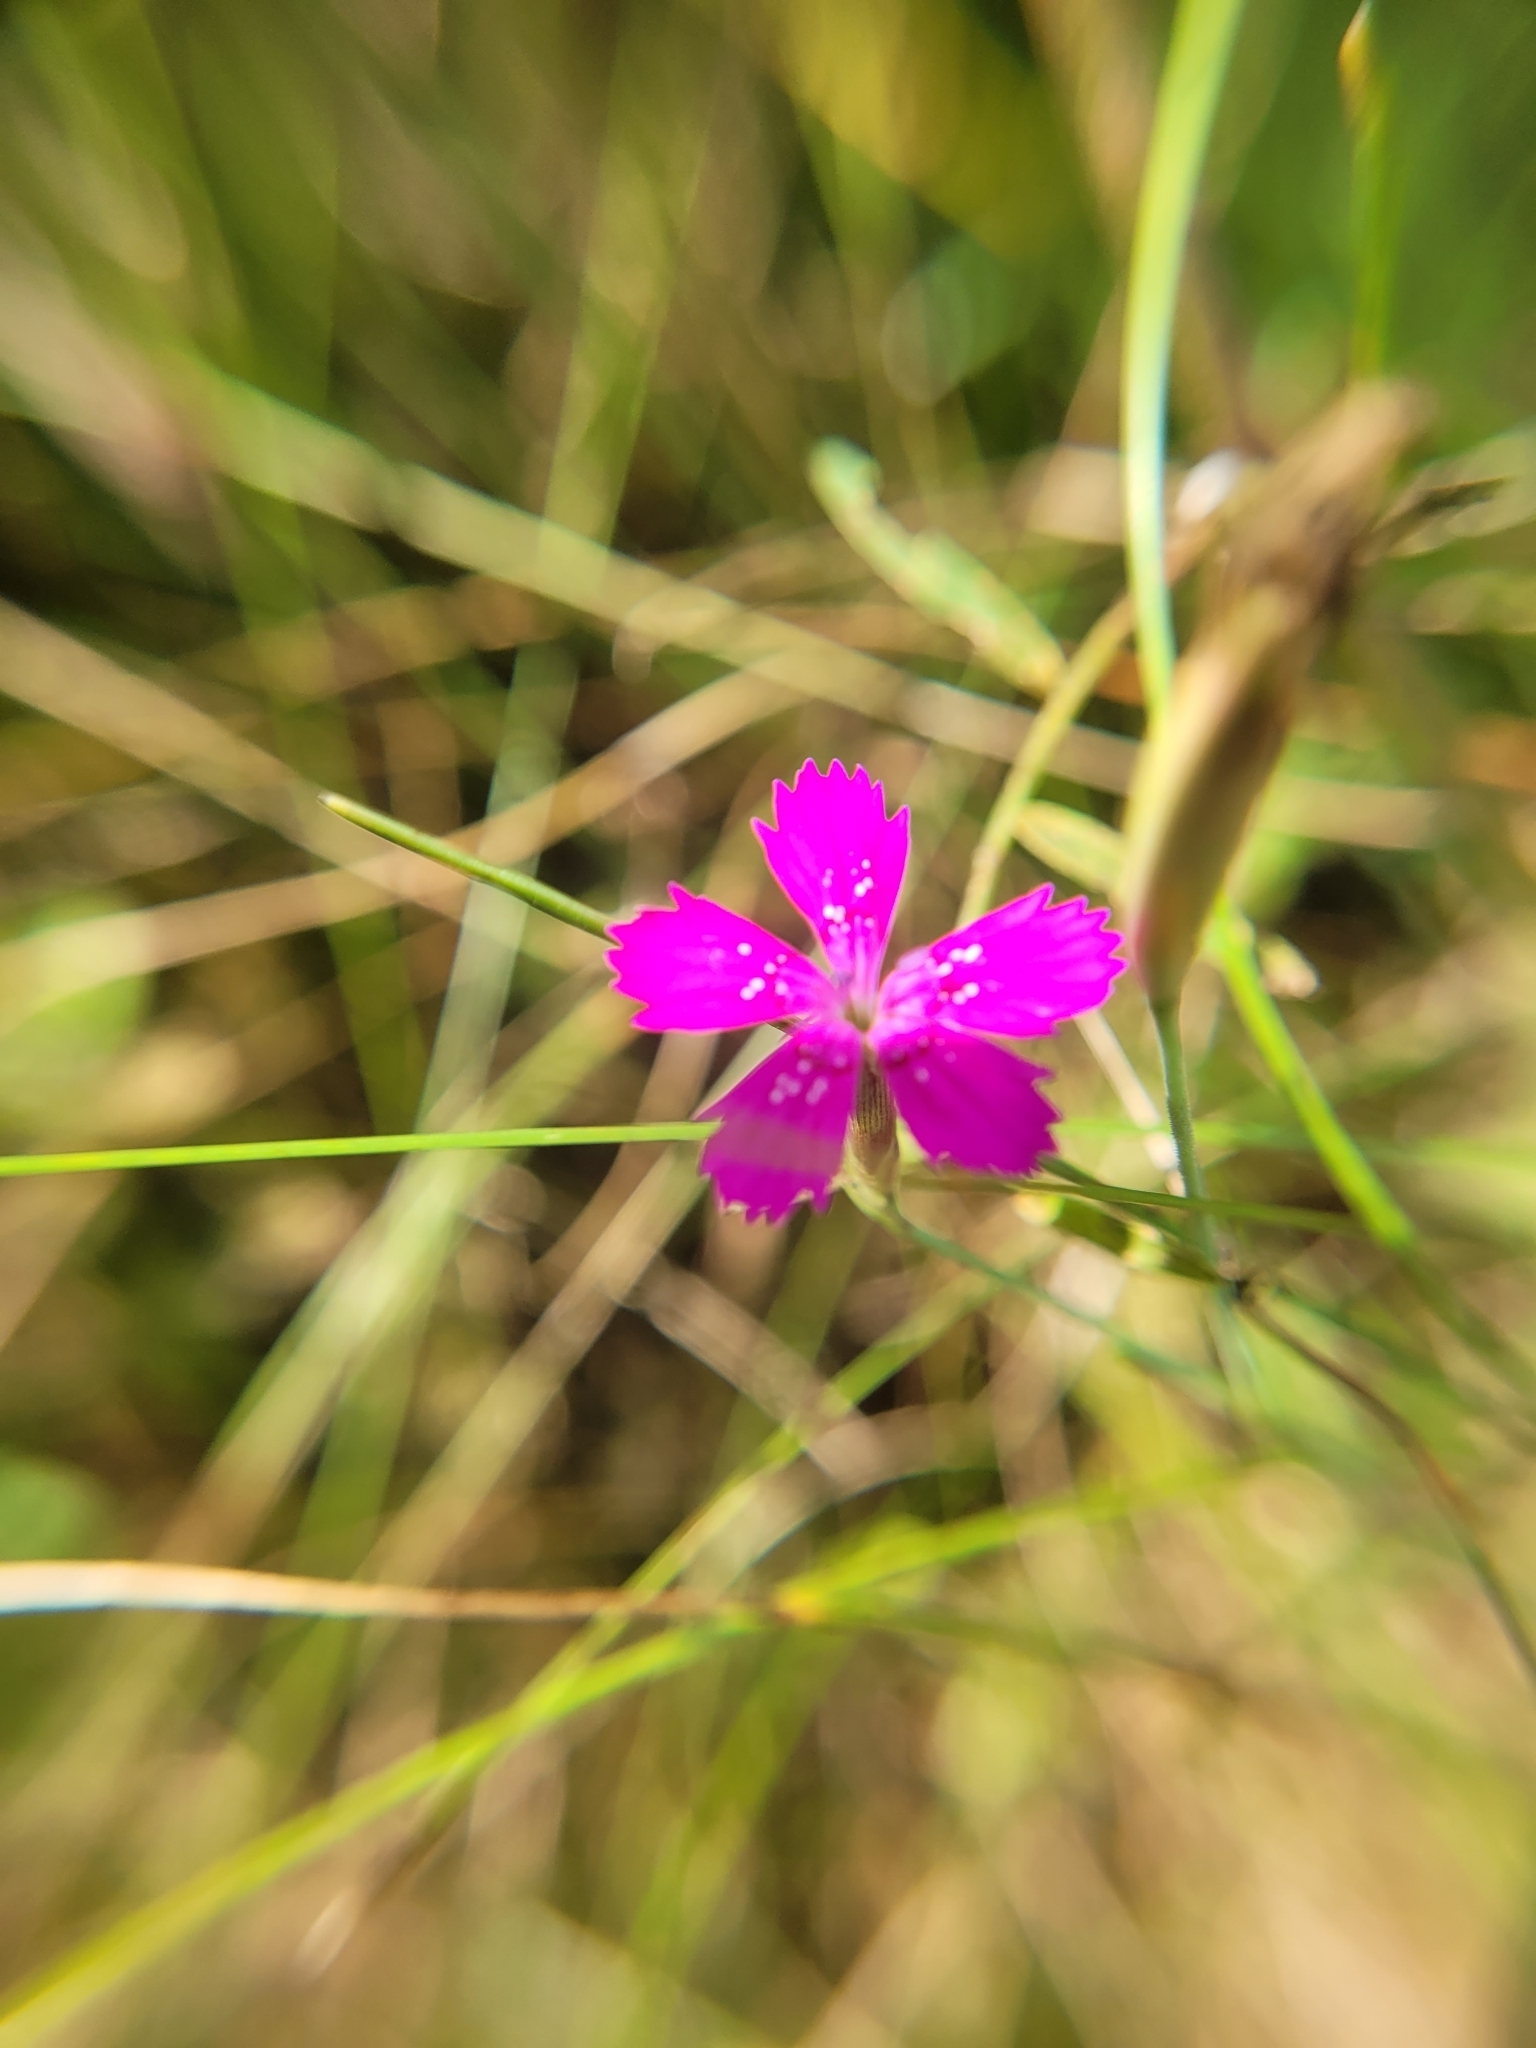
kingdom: Plantae
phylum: Tracheophyta
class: Magnoliopsida
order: Caryophyllales
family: Caryophyllaceae
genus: Dianthus
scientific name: Dianthus deltoides
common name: Maiden pink
